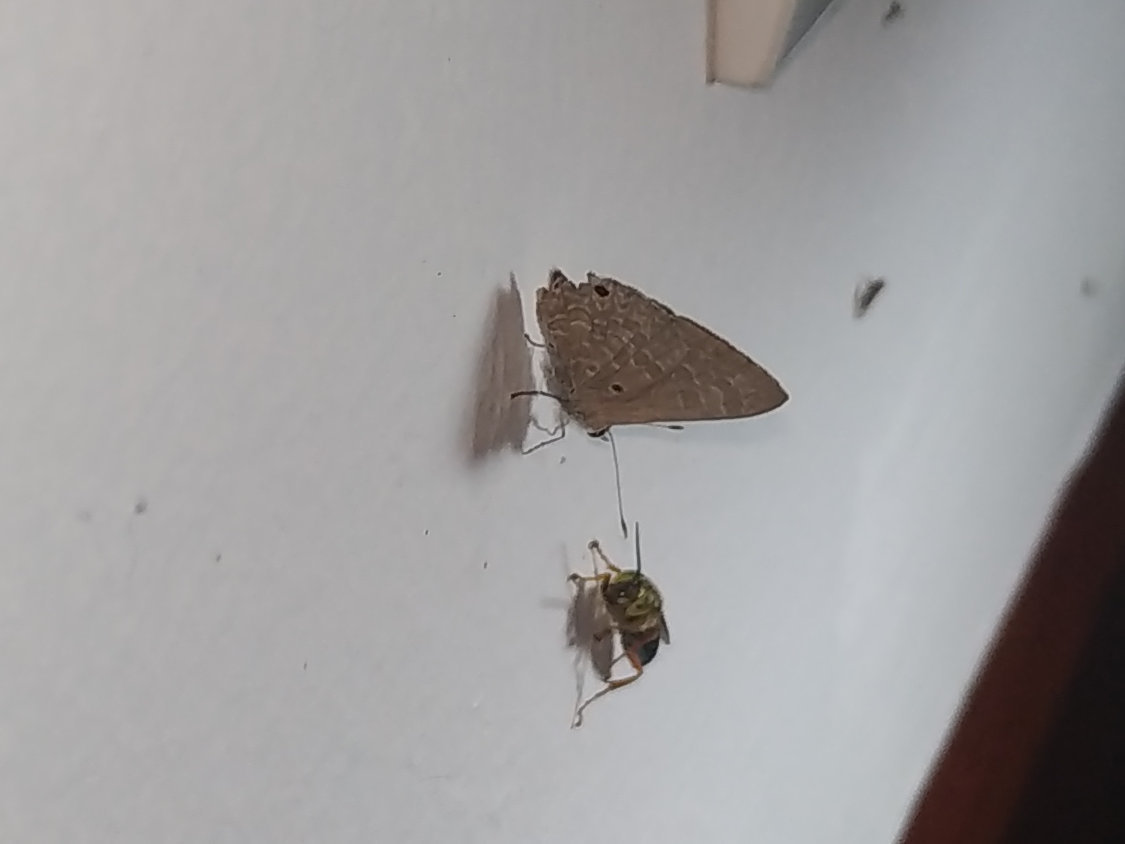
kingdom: Animalia
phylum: Arthropoda
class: Insecta
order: Lepidoptera
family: Lycaenidae
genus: Anthene
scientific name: Anthene lycaenina
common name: Pointed ciliate blue
